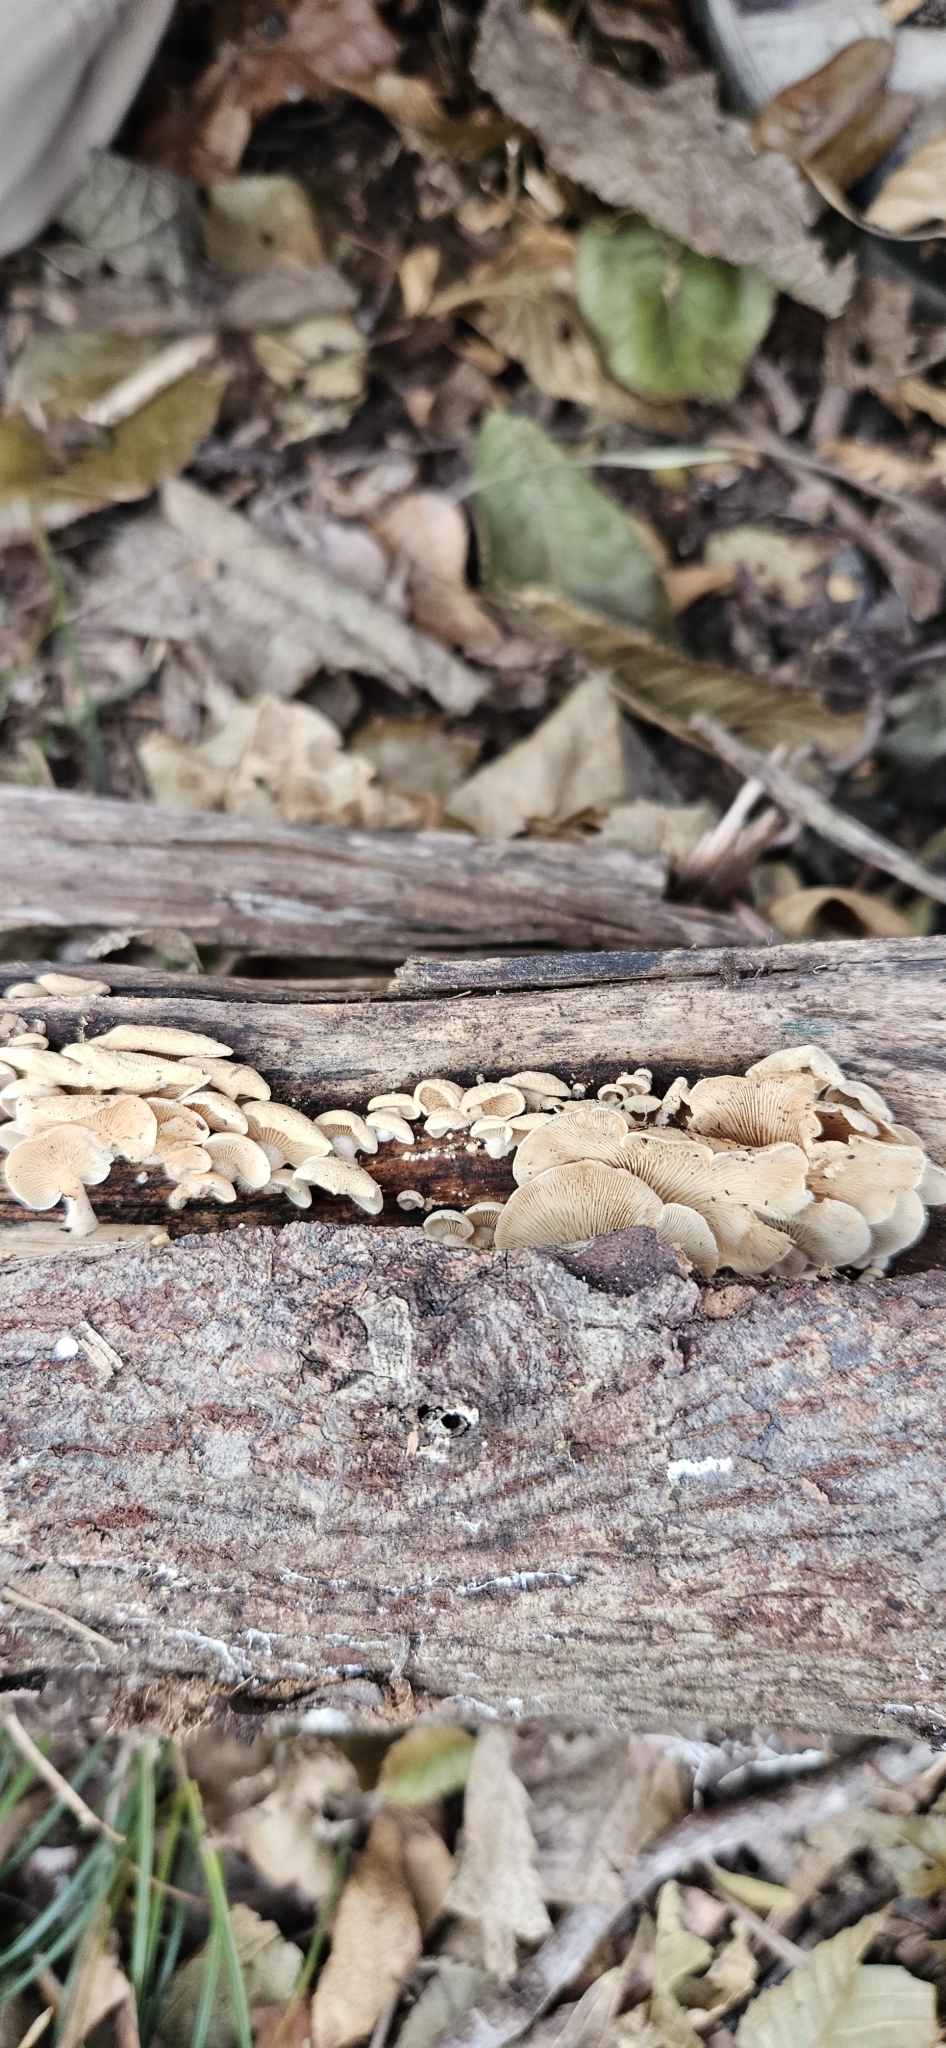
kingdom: Fungi
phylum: Basidiomycota
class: Agaricomycetes
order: Agaricales
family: Mycenaceae
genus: Panellus
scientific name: Panellus stipticus
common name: Bitter oysterling
